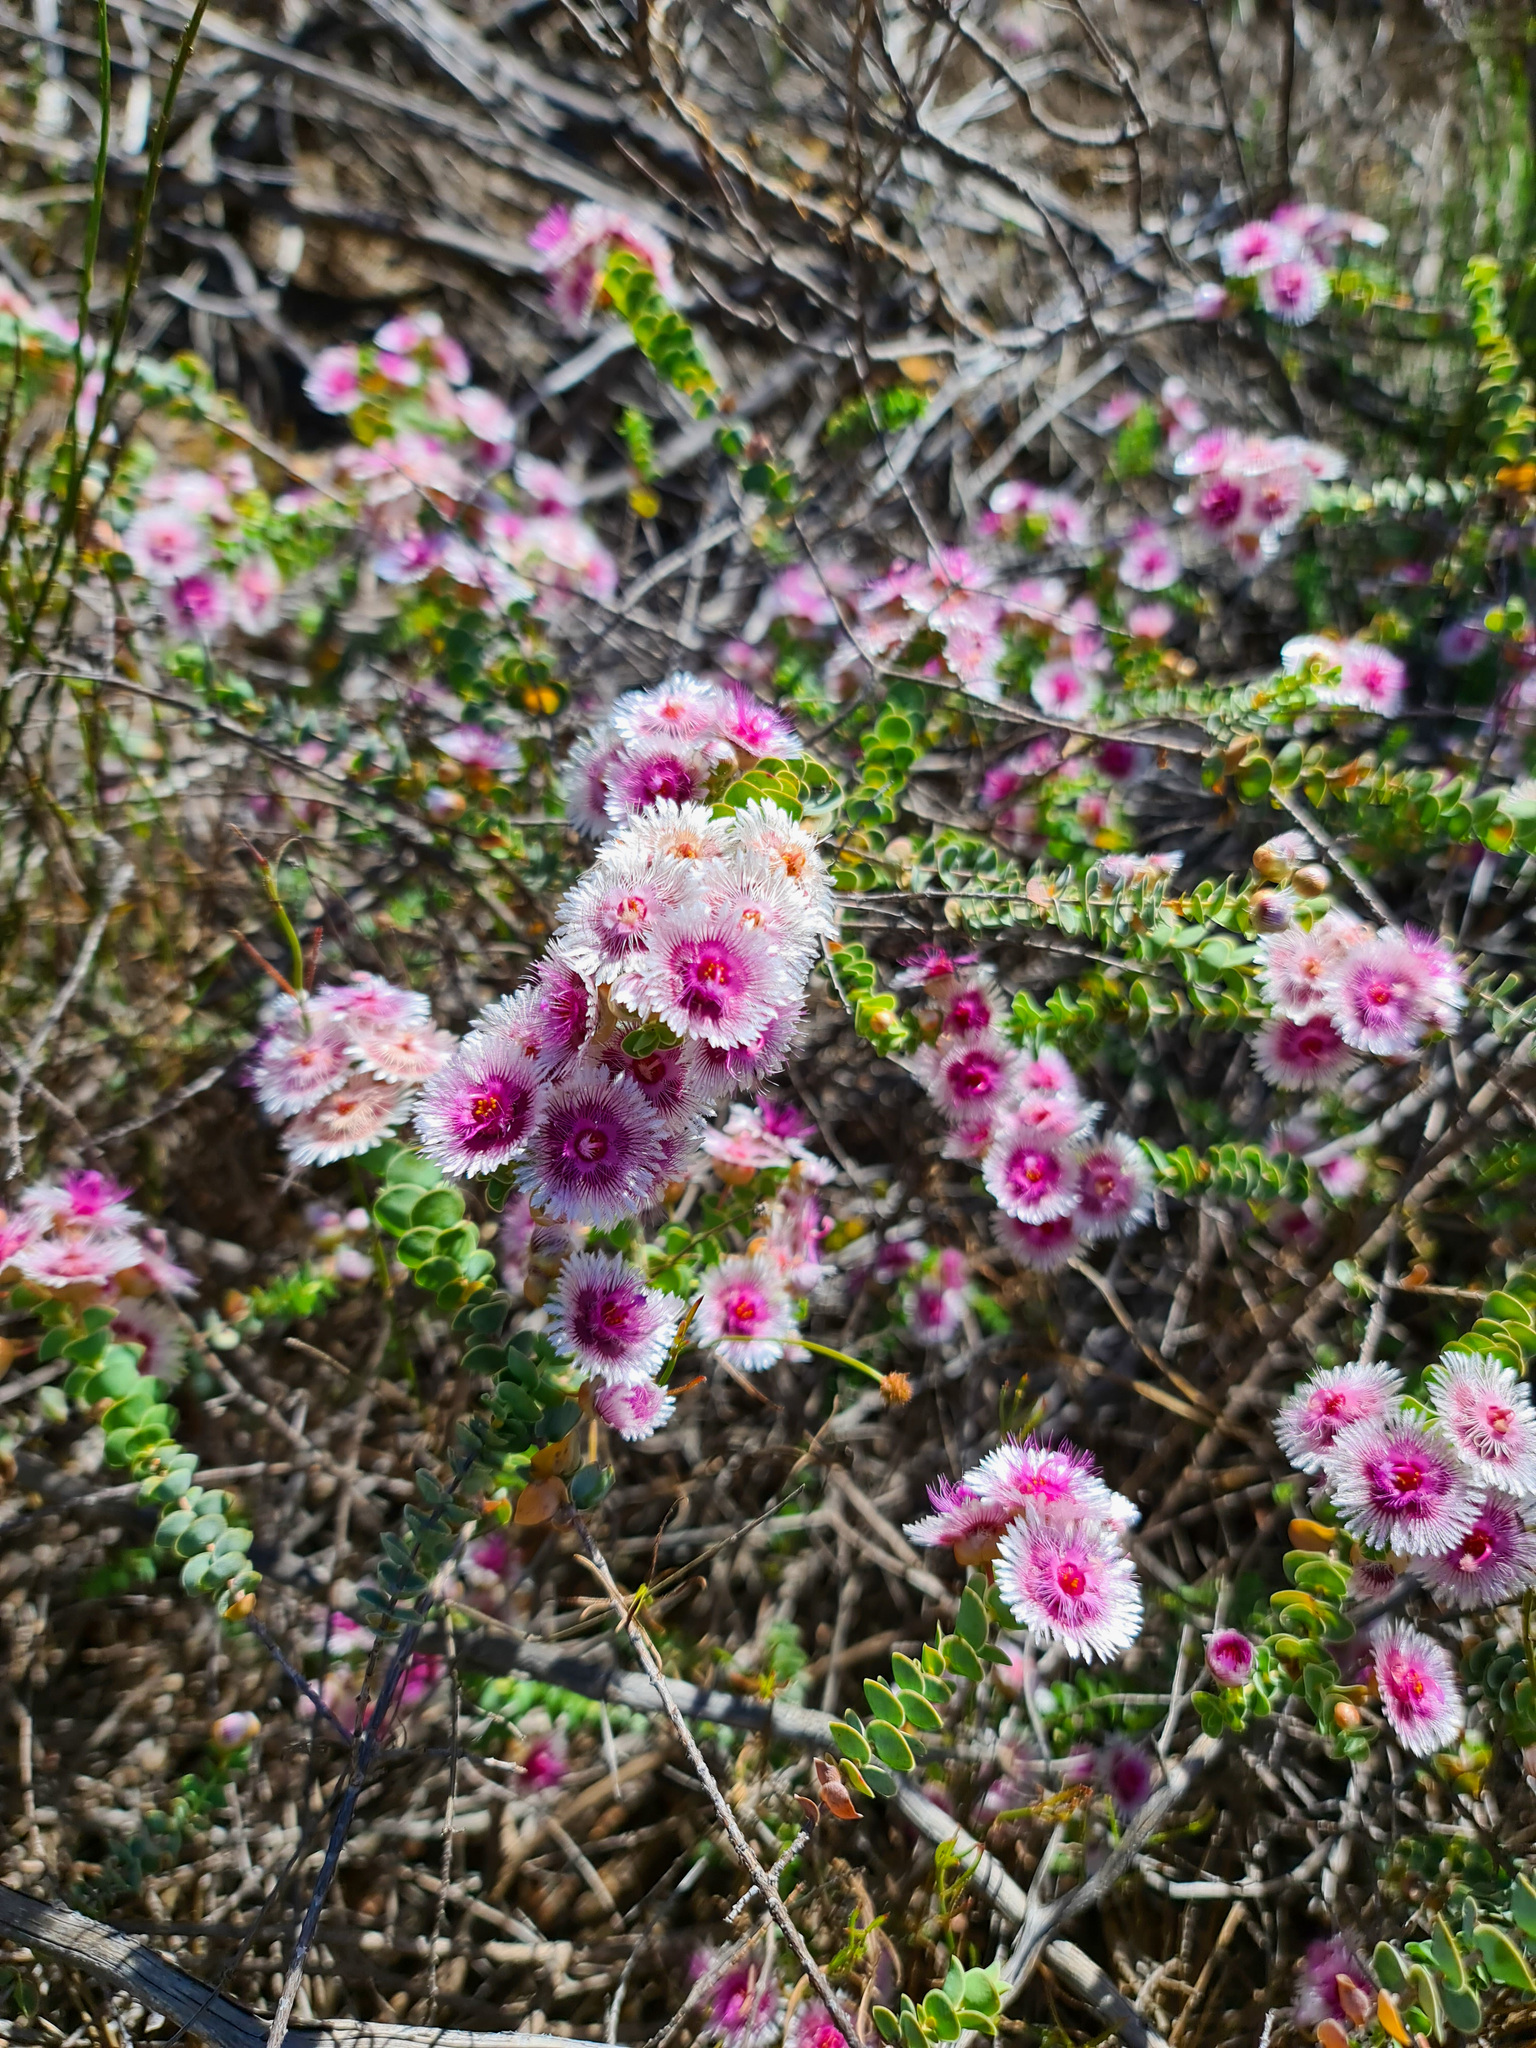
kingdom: Plantae
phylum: Tracheophyta
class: Magnoliopsida
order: Myrtales
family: Myrtaceae
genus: Verticordia
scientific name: Verticordia oculata
